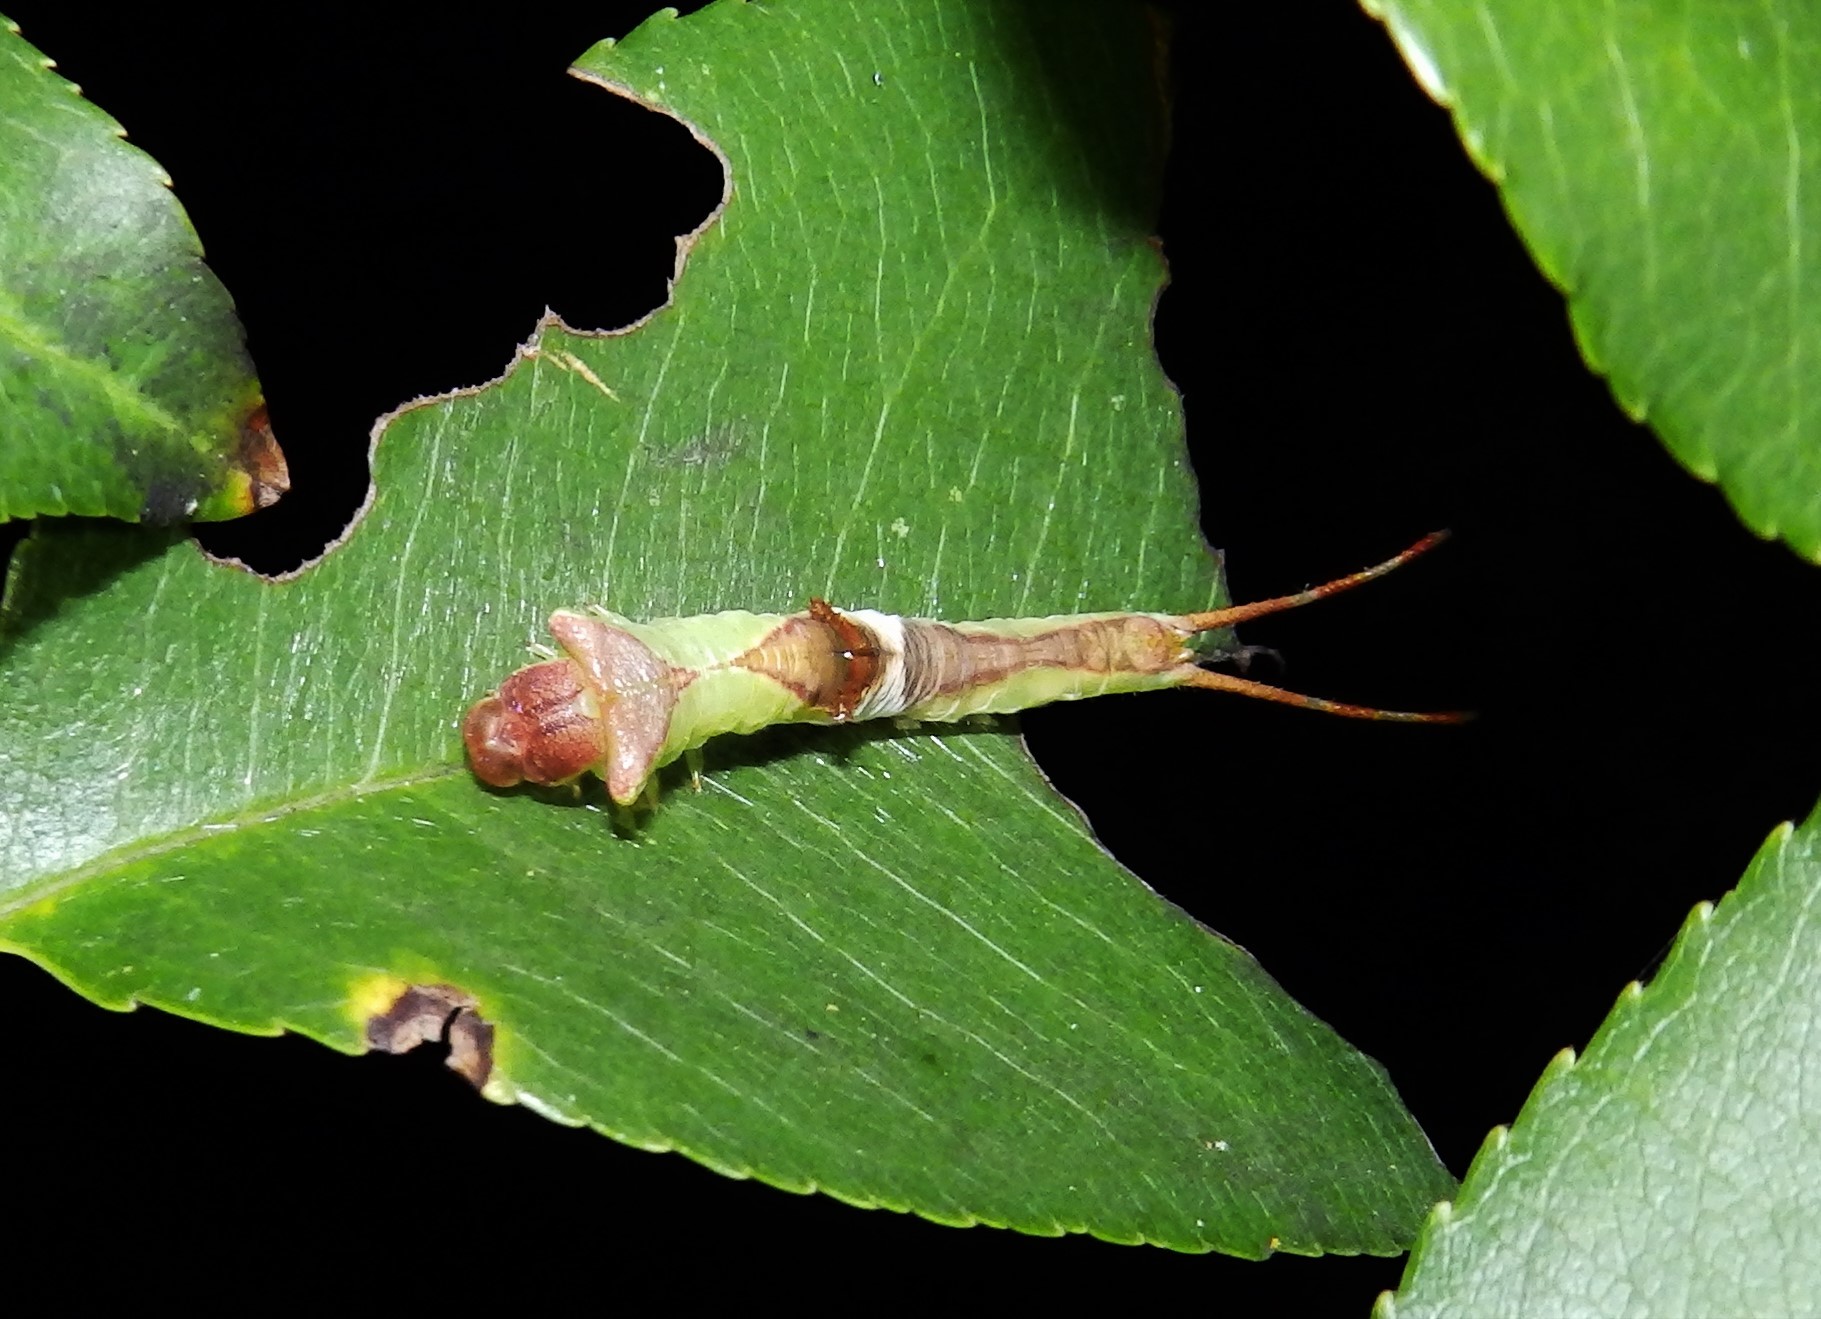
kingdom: Animalia
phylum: Arthropoda
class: Insecta
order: Lepidoptera
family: Notodontidae
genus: Furcula
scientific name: Furcula borealis
